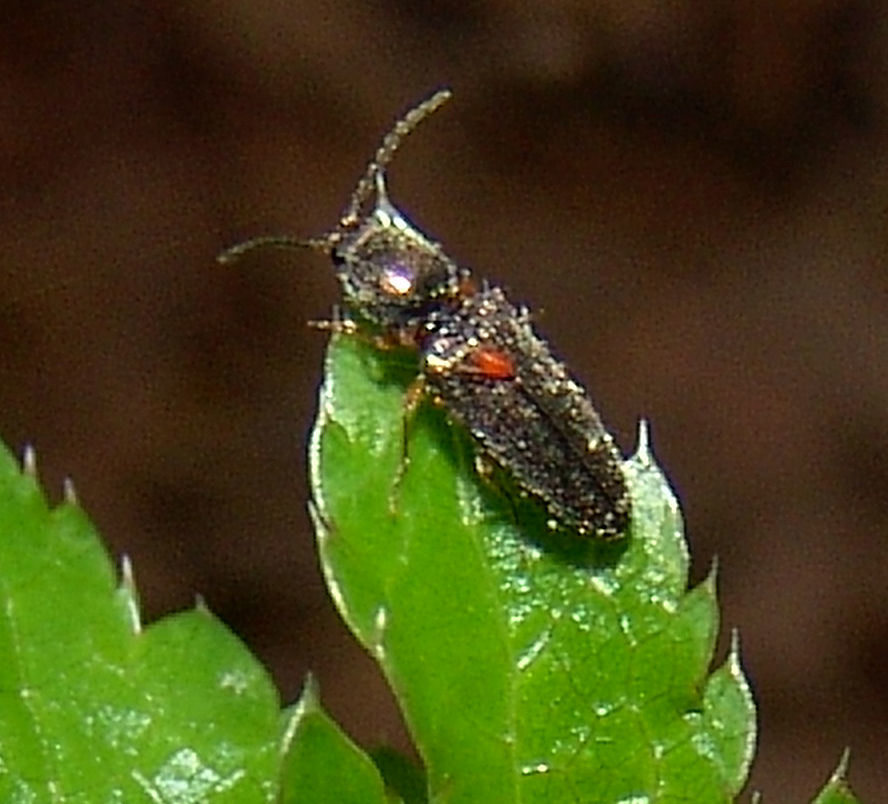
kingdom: Animalia
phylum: Arthropoda
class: Insecta
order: Coleoptera
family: Elateridae
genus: Limonius
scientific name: Limonius basilaris
